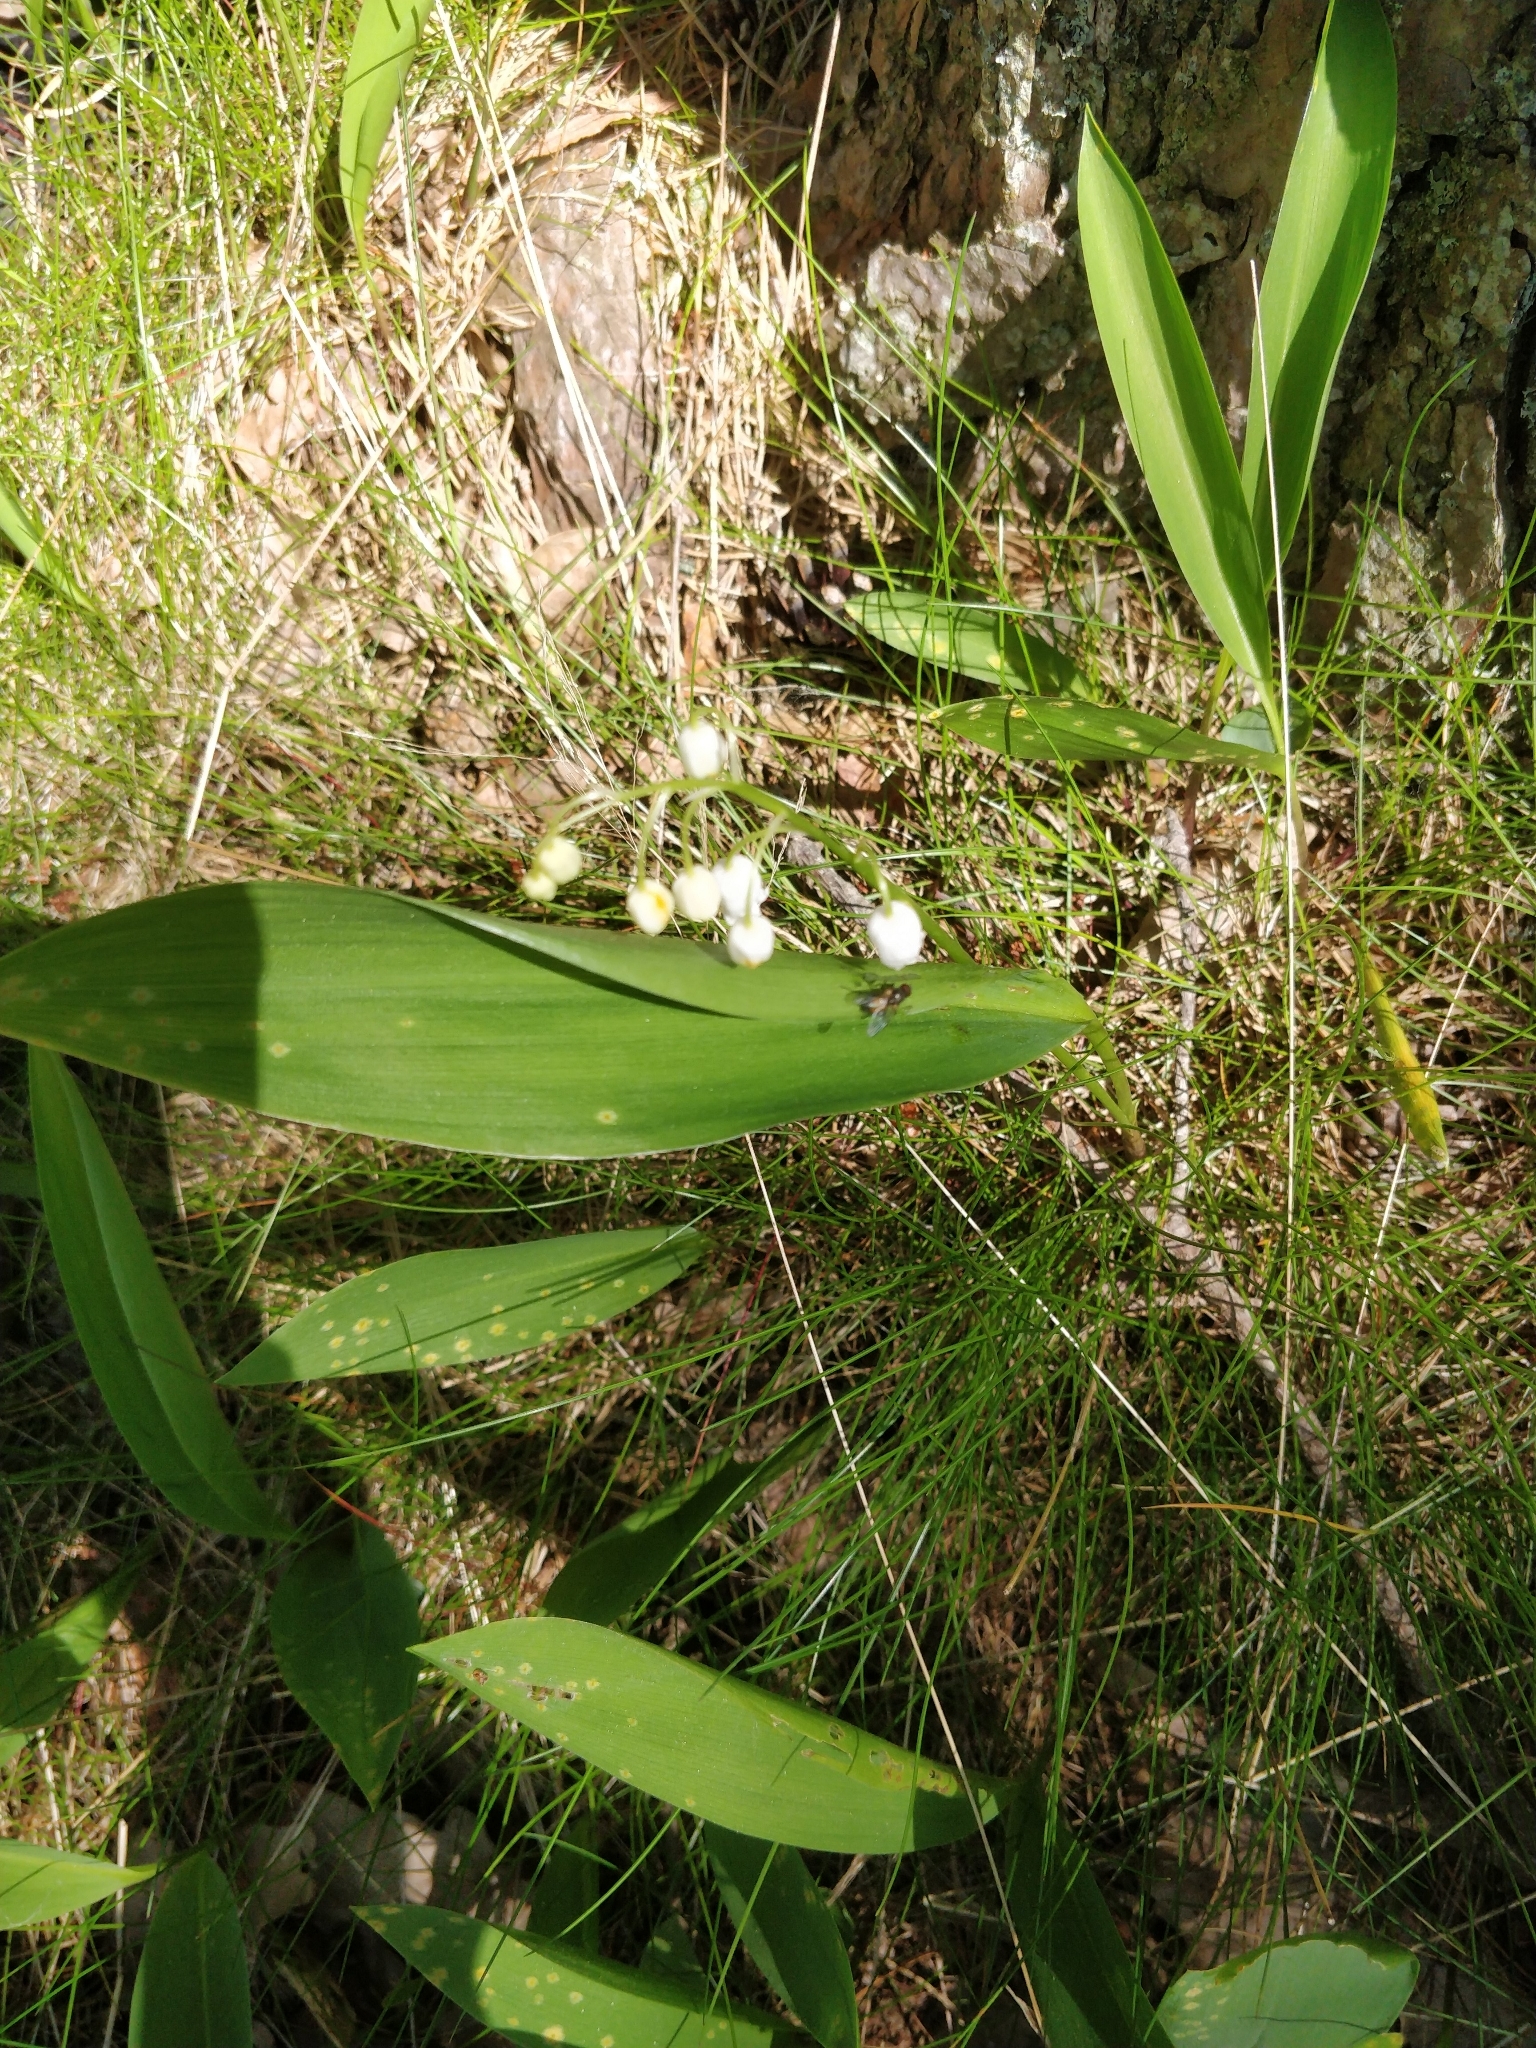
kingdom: Plantae
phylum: Tracheophyta
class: Liliopsida
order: Asparagales
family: Asparagaceae
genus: Convallaria
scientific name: Convallaria majalis
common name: Lily-of-the-valley
